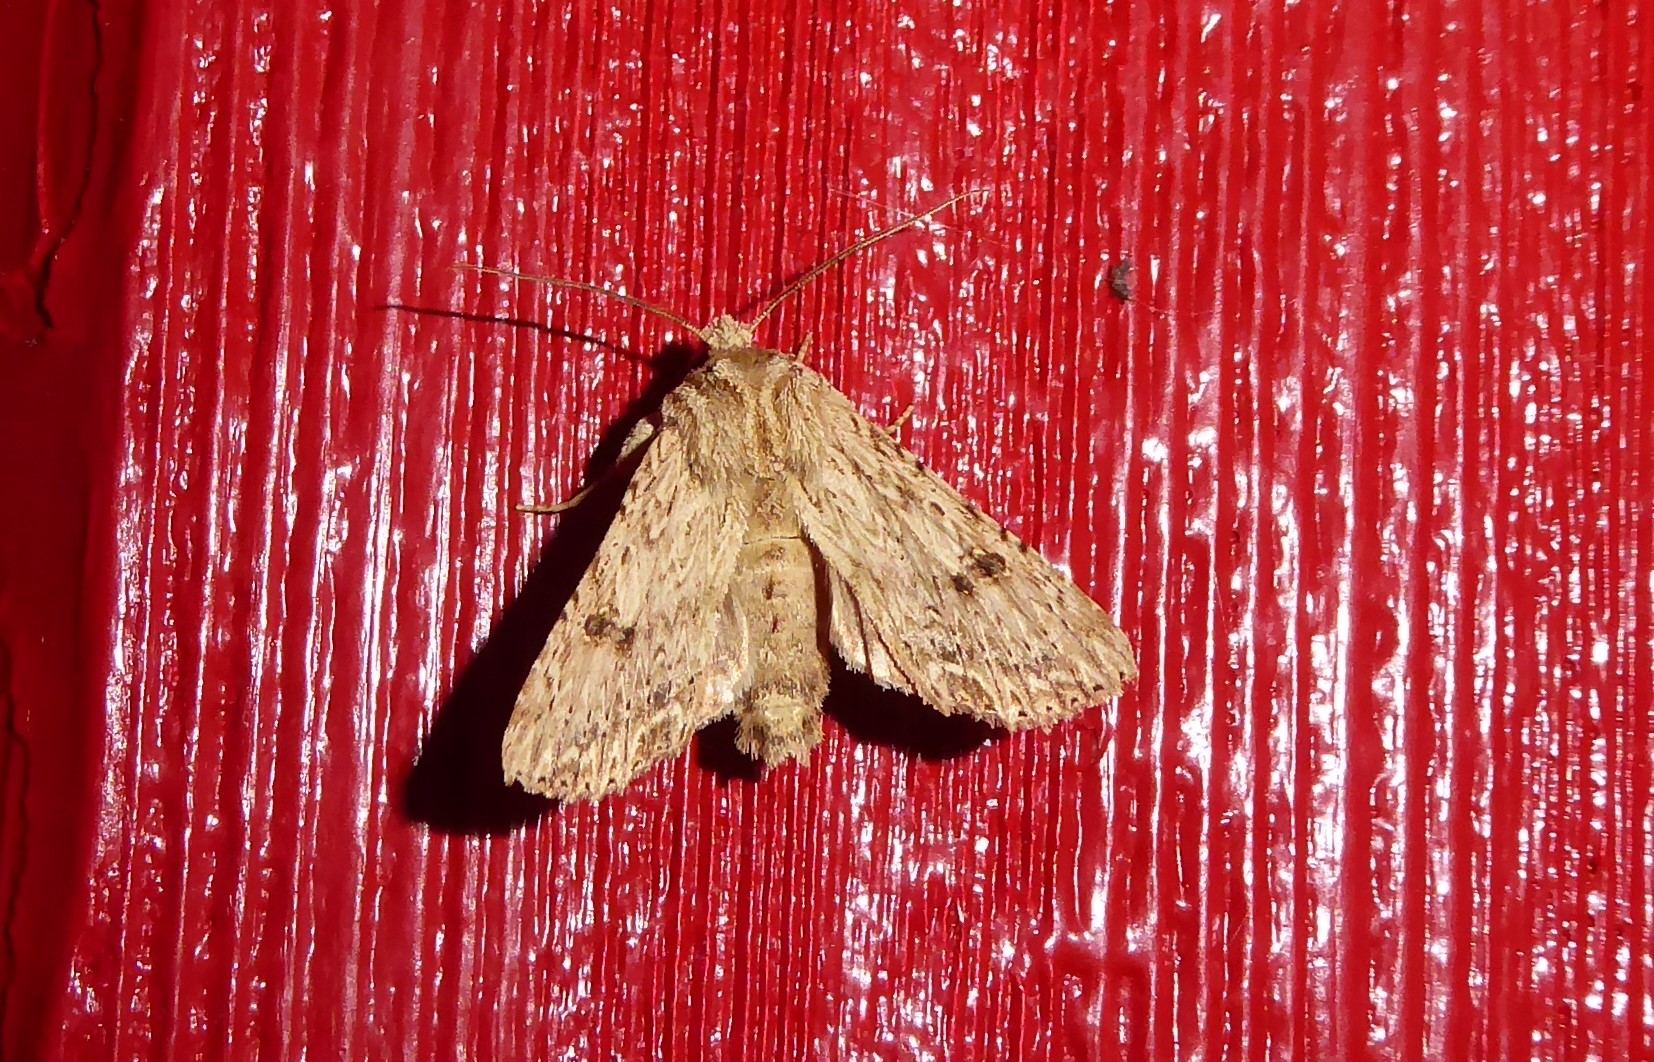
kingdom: Animalia
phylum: Arthropoda
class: Insecta
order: Lepidoptera
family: Noctuidae
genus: Meterana
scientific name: Meterana pansicolor
